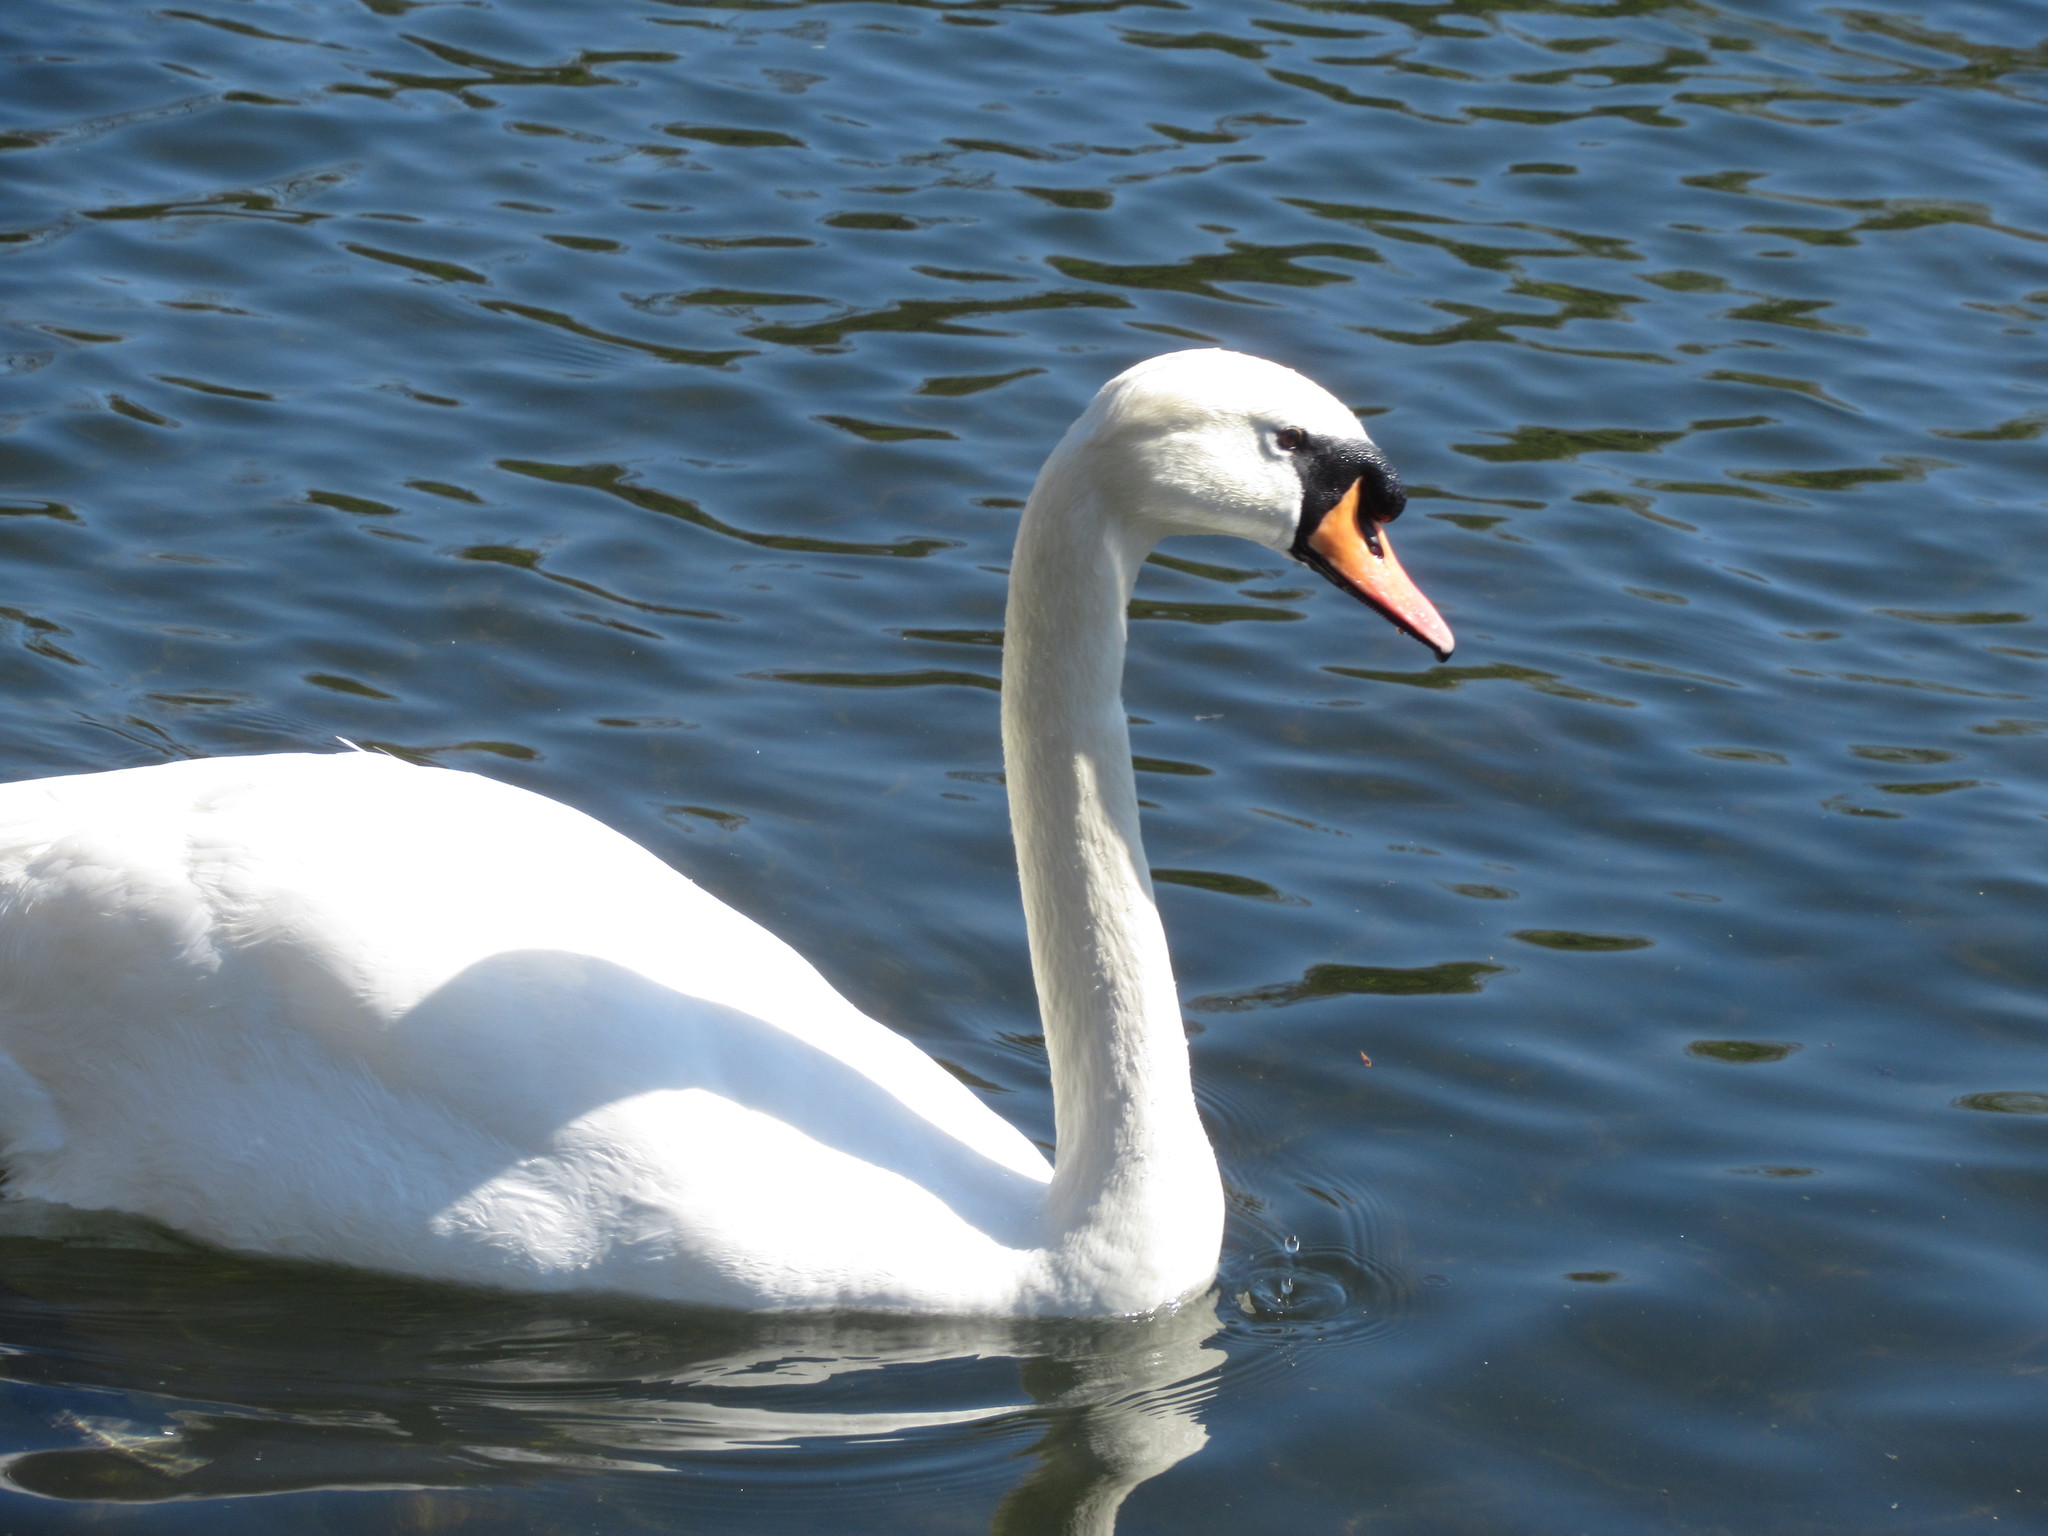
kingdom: Animalia
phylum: Chordata
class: Aves
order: Anseriformes
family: Anatidae
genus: Cygnus
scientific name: Cygnus olor
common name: Mute swan
